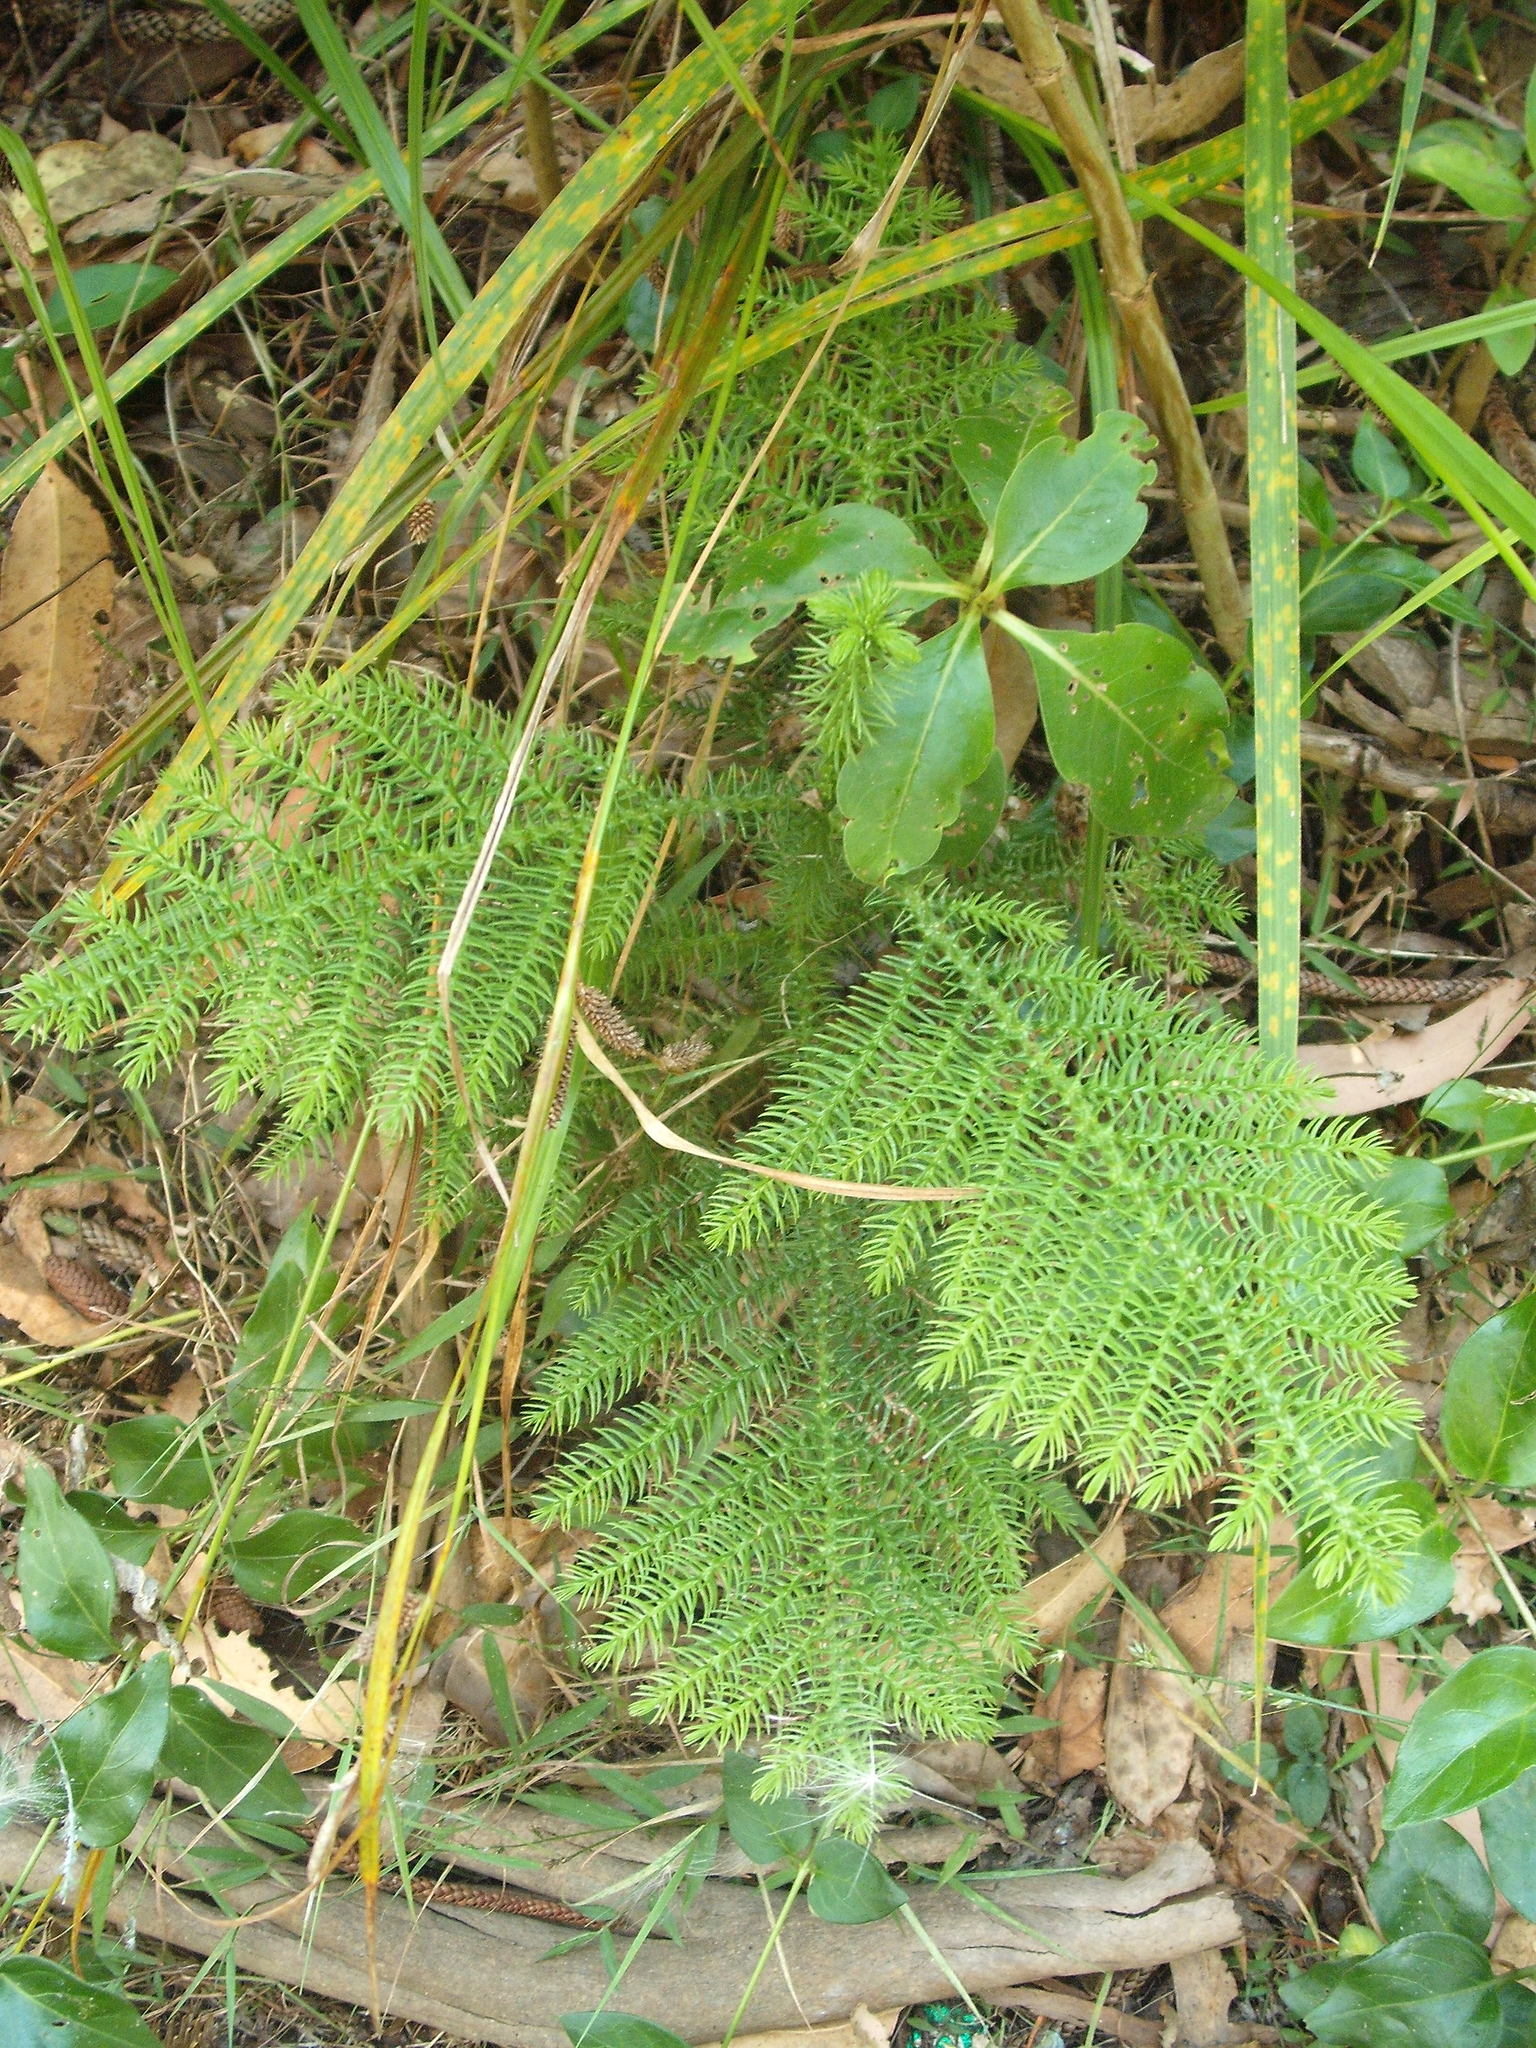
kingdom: Plantae
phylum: Tracheophyta
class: Pinopsida
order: Pinales
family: Araucariaceae
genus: Araucaria
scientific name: Araucaria heterophylla
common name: Norfolk island pine
